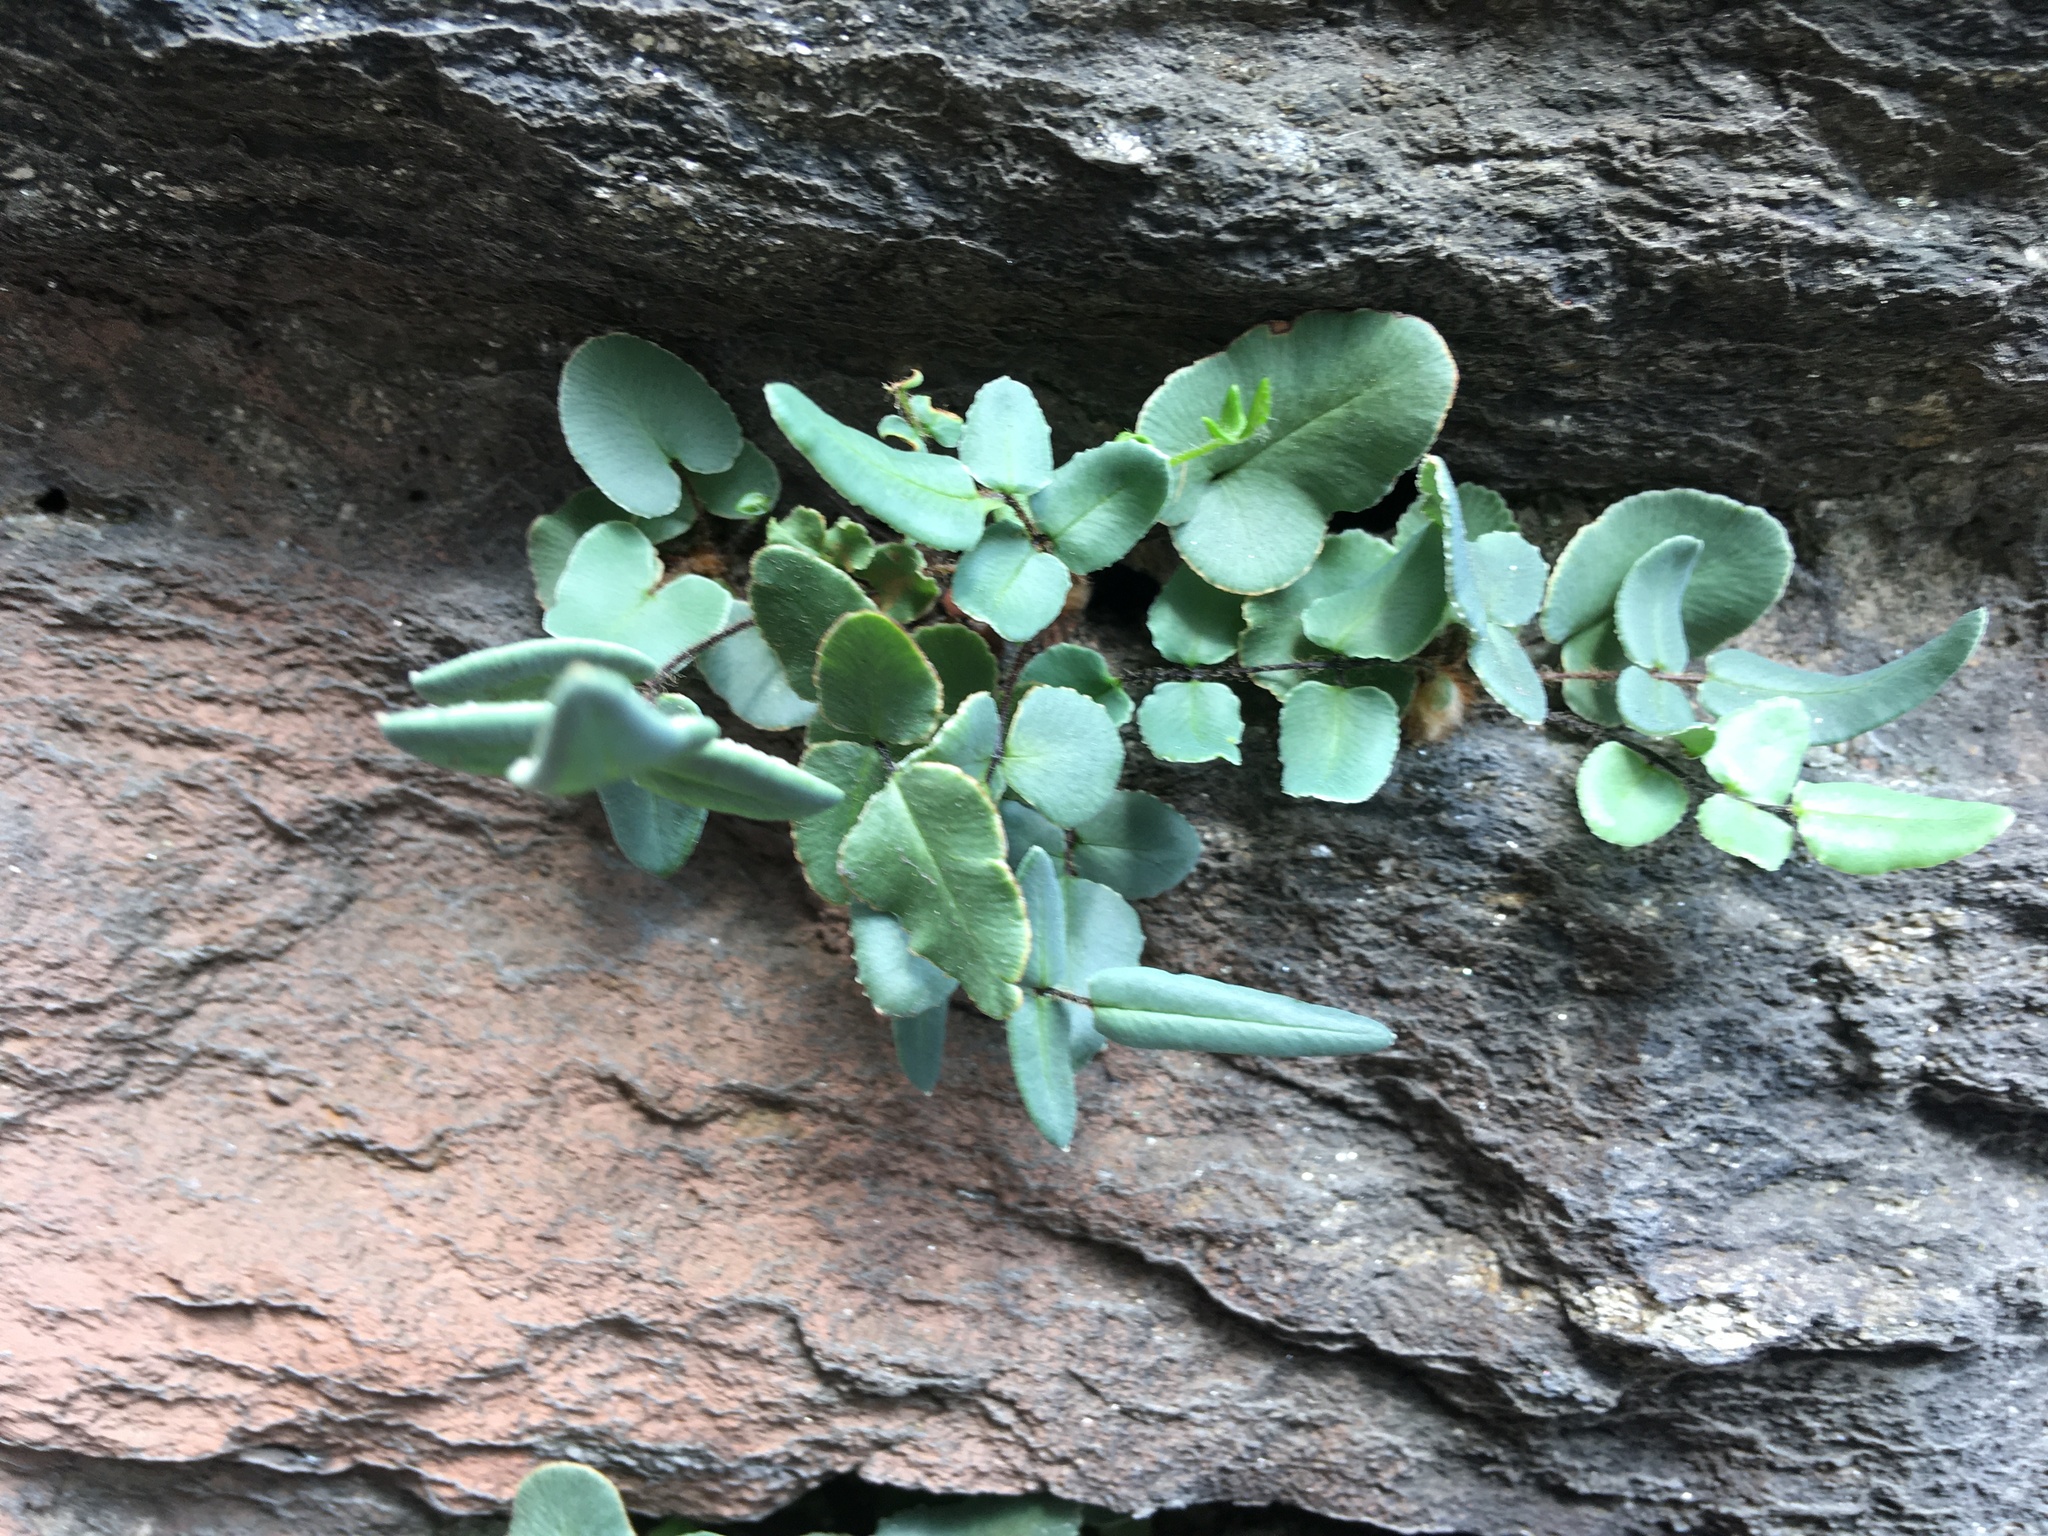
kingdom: Plantae
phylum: Tracheophyta
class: Polypodiopsida
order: Polypodiales
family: Pteridaceae
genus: Pellaea
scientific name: Pellaea atropurpurea
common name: Hairy cliffbrake
